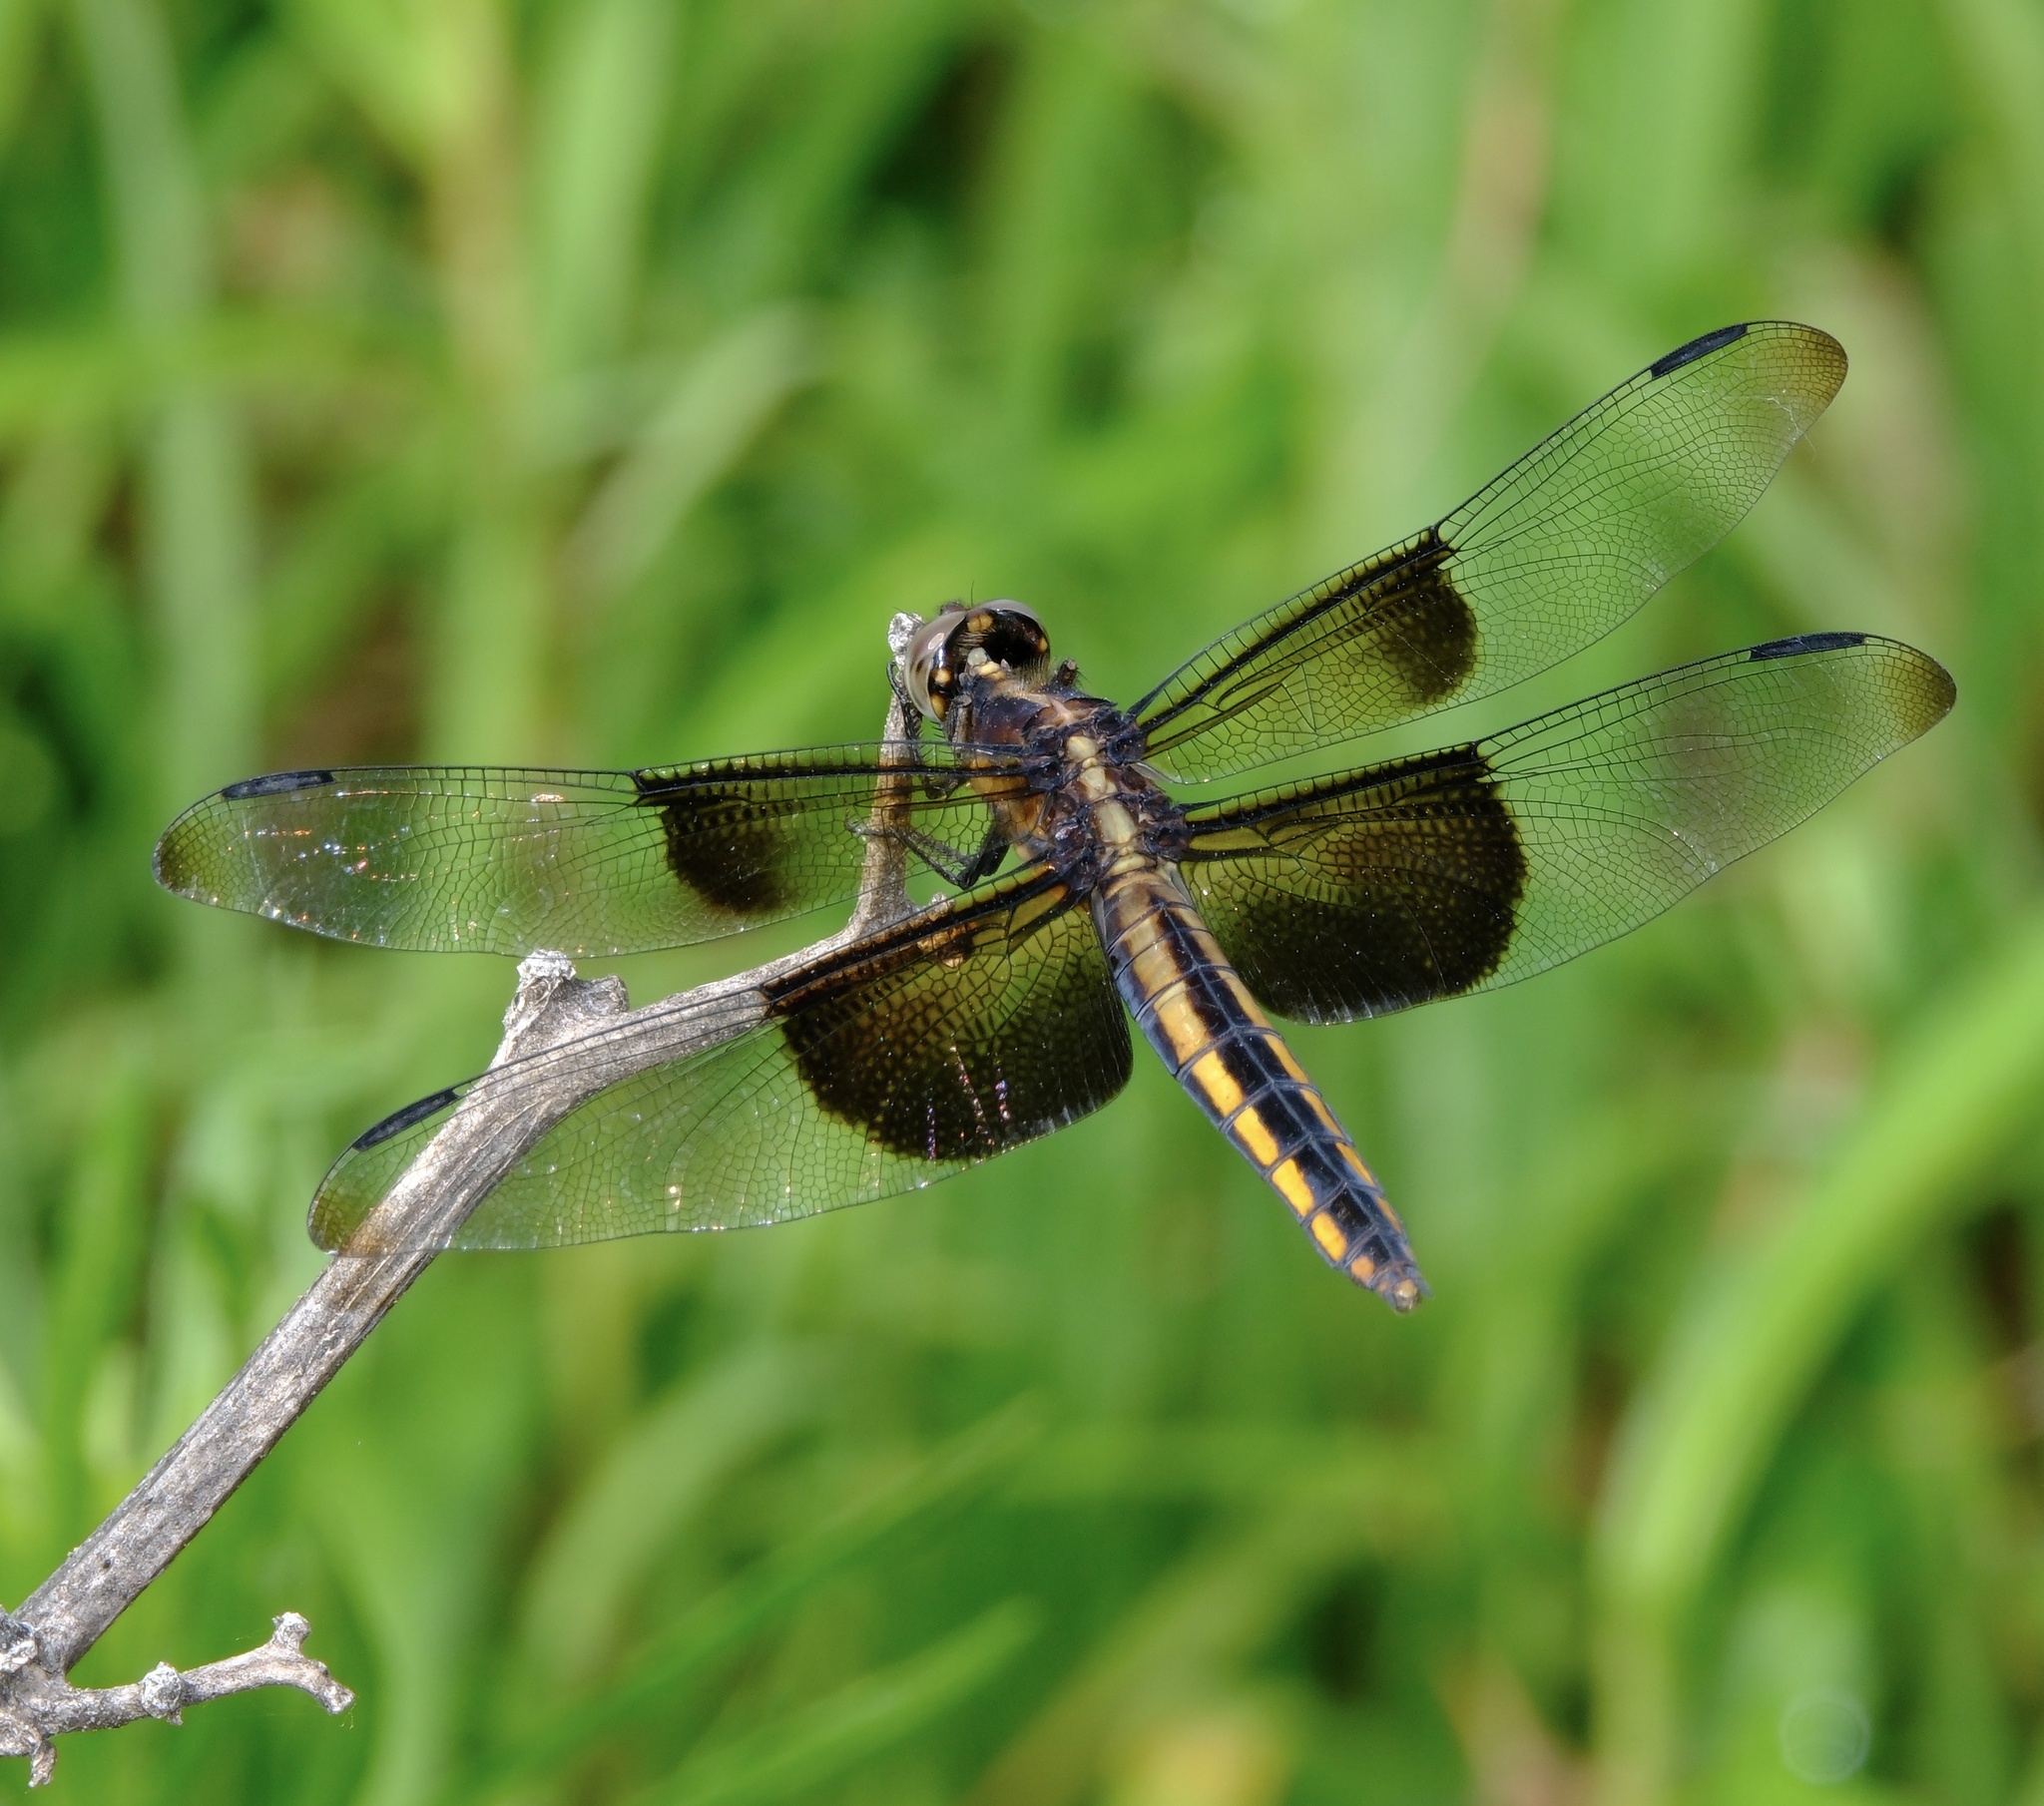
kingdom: Animalia
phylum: Arthropoda
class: Insecta
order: Odonata
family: Libellulidae
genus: Libellula
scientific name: Libellula luctuosa
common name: Widow skimmer
